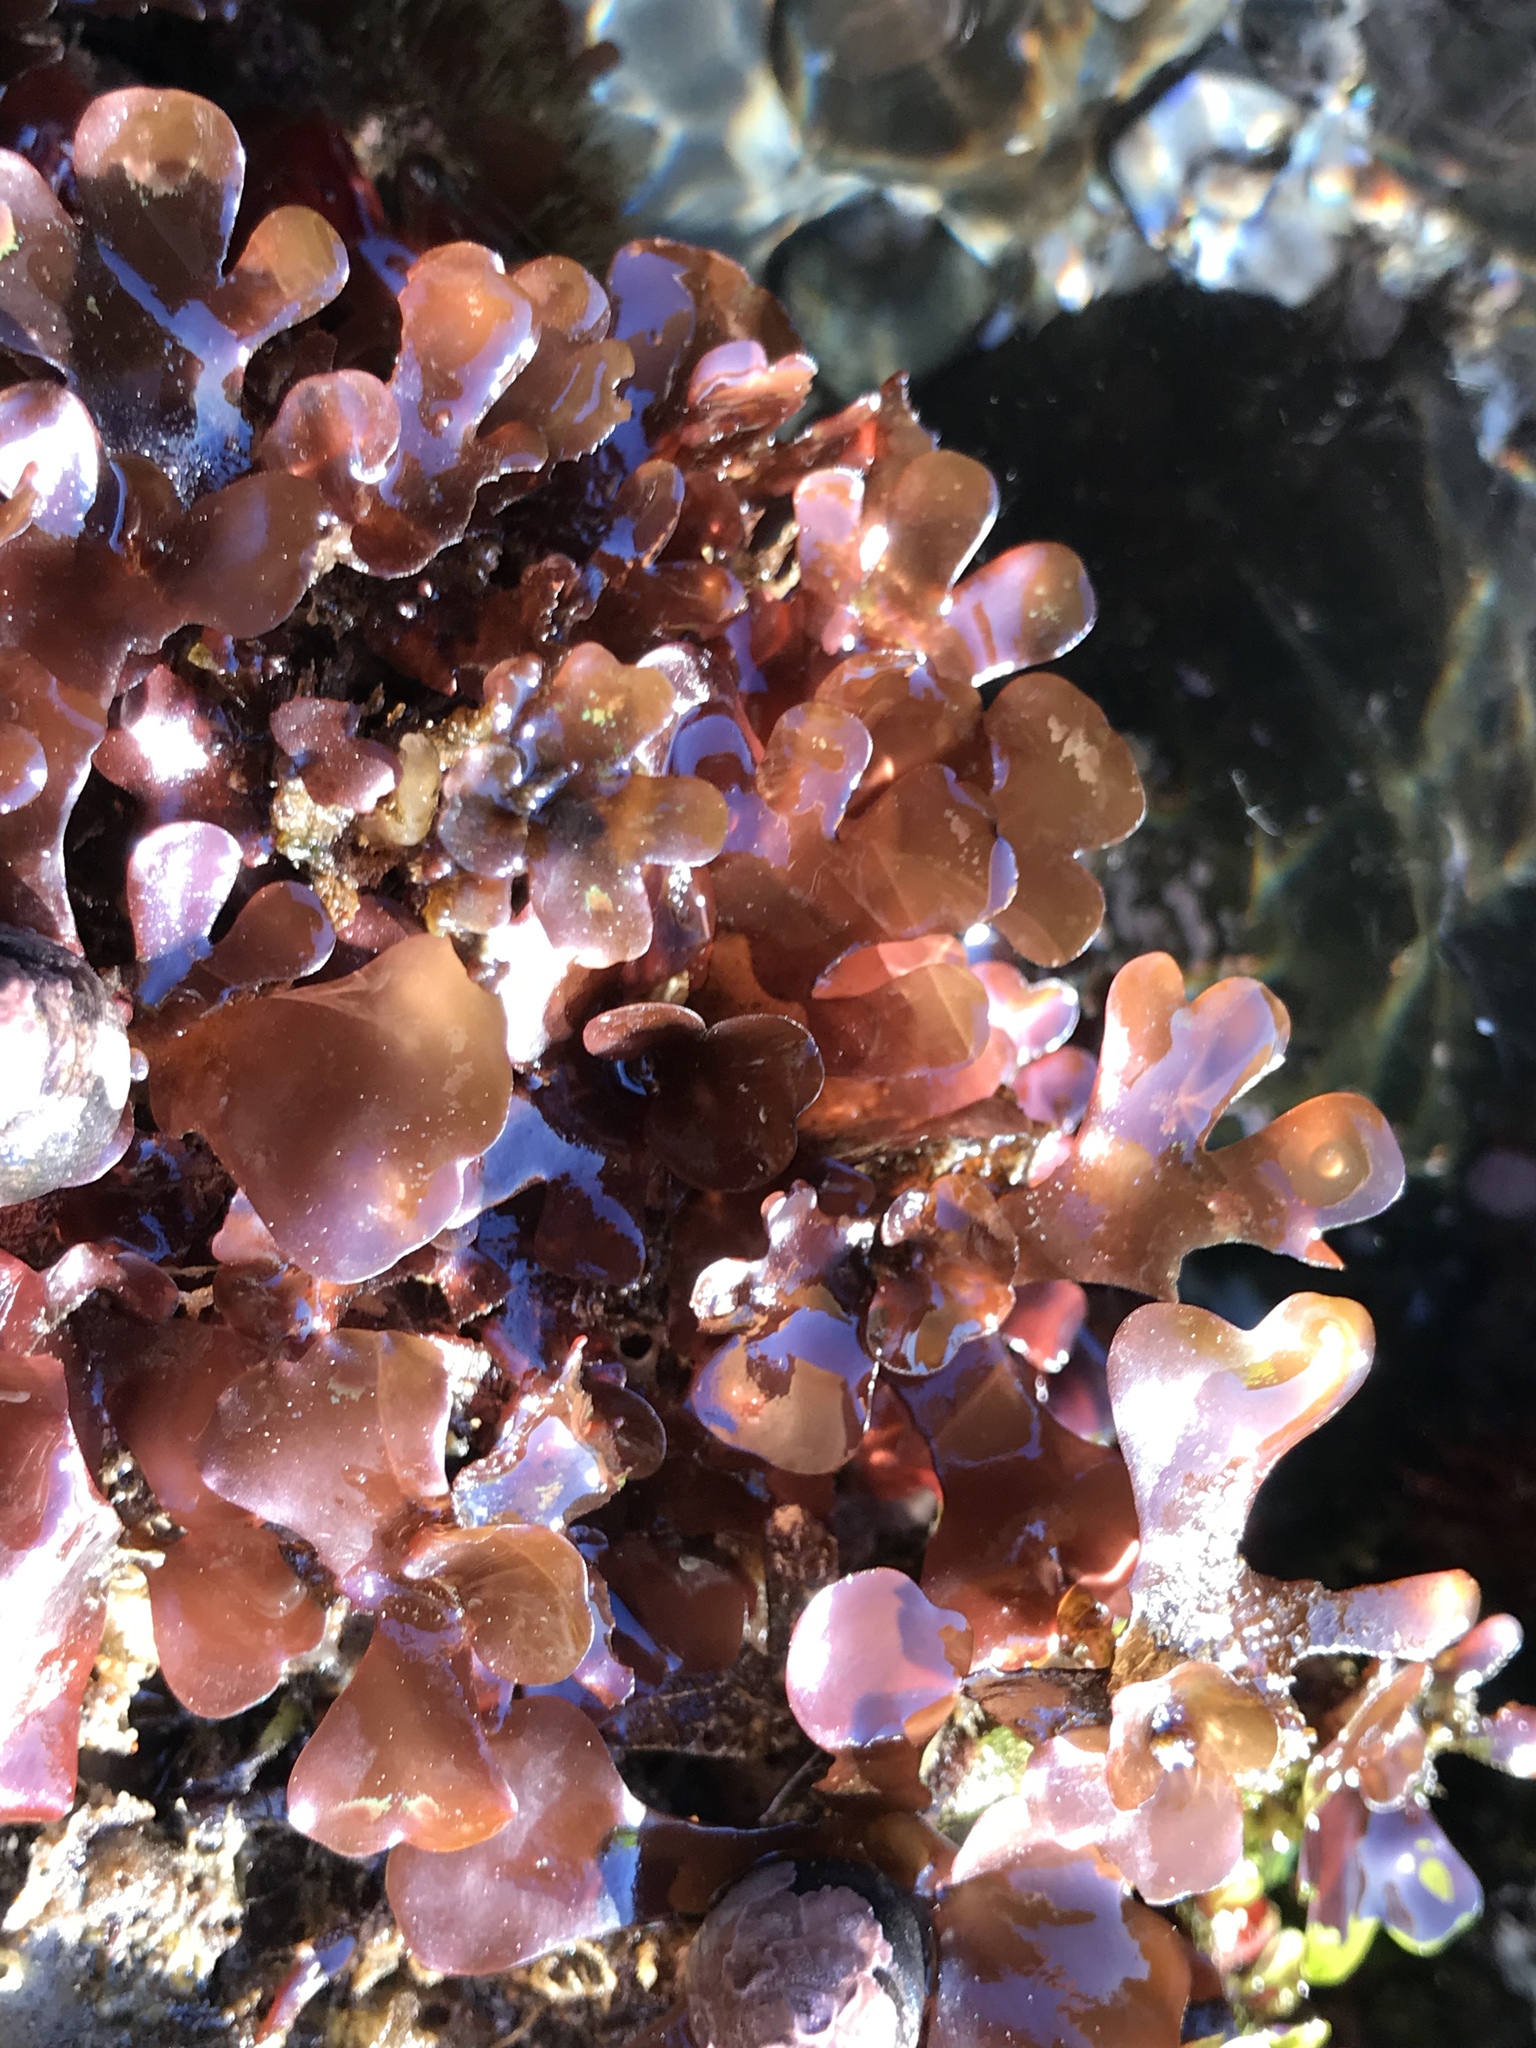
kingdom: Plantae
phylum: Rhodophyta
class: Florideophyceae
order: Rhodymeniales
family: Rhodymeniaceae
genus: Rhodymenia
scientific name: Rhodymenia skottsbergi
